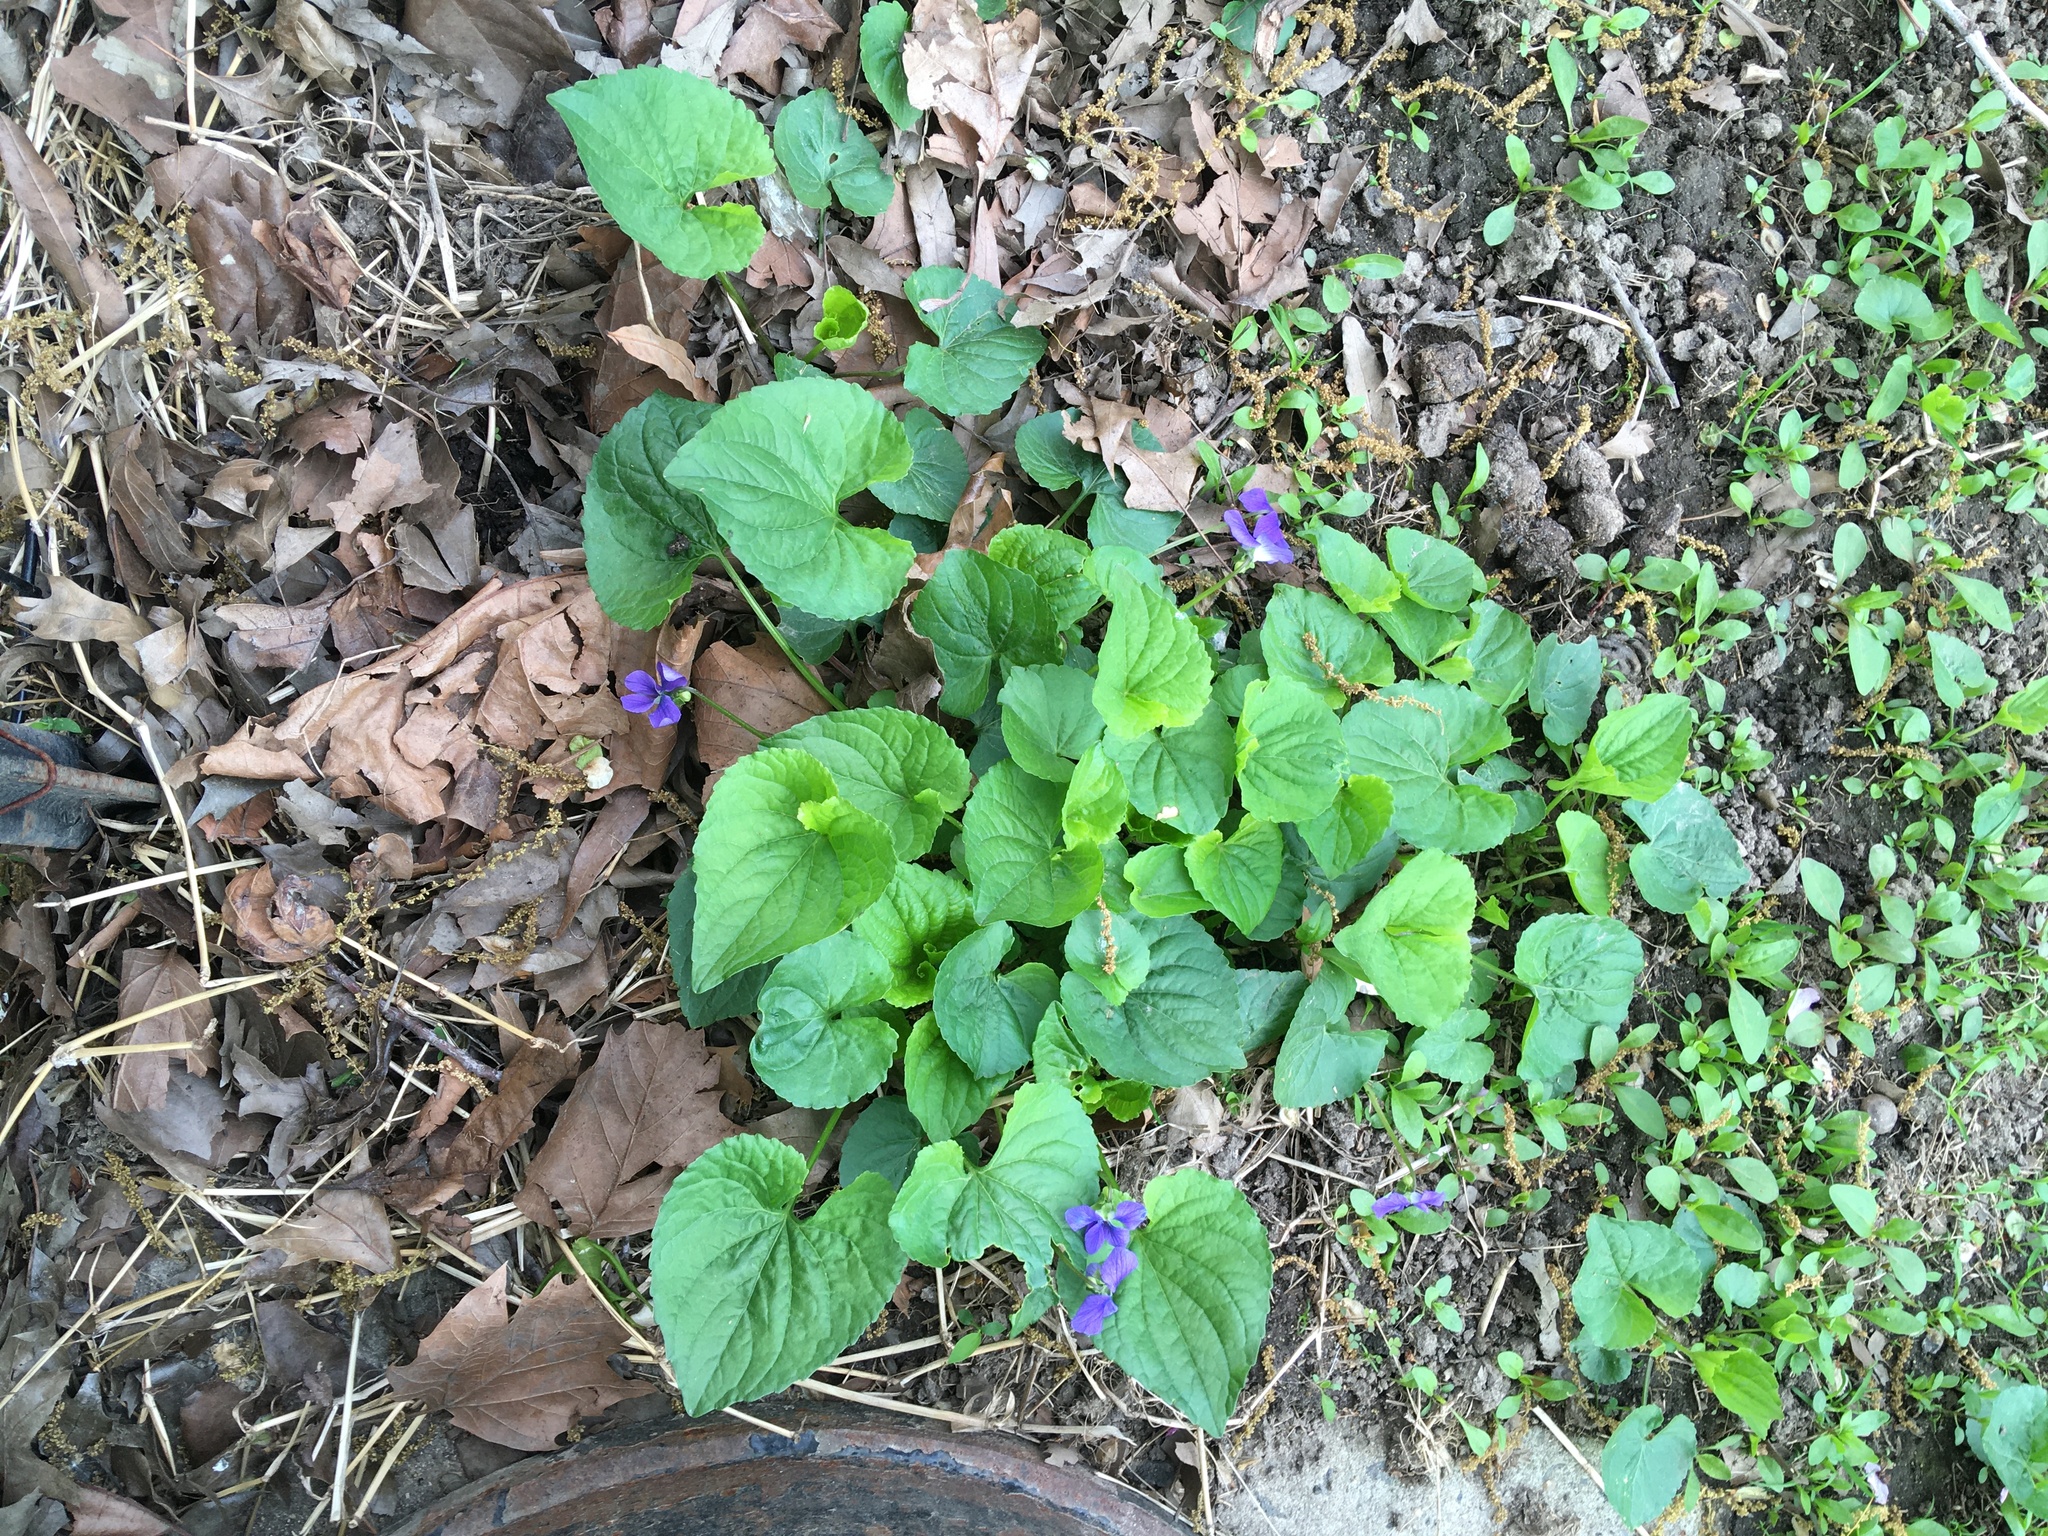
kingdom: Plantae
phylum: Tracheophyta
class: Magnoliopsida
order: Malpighiales
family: Violaceae
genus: Viola
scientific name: Viola sororia
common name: Dooryard violet
